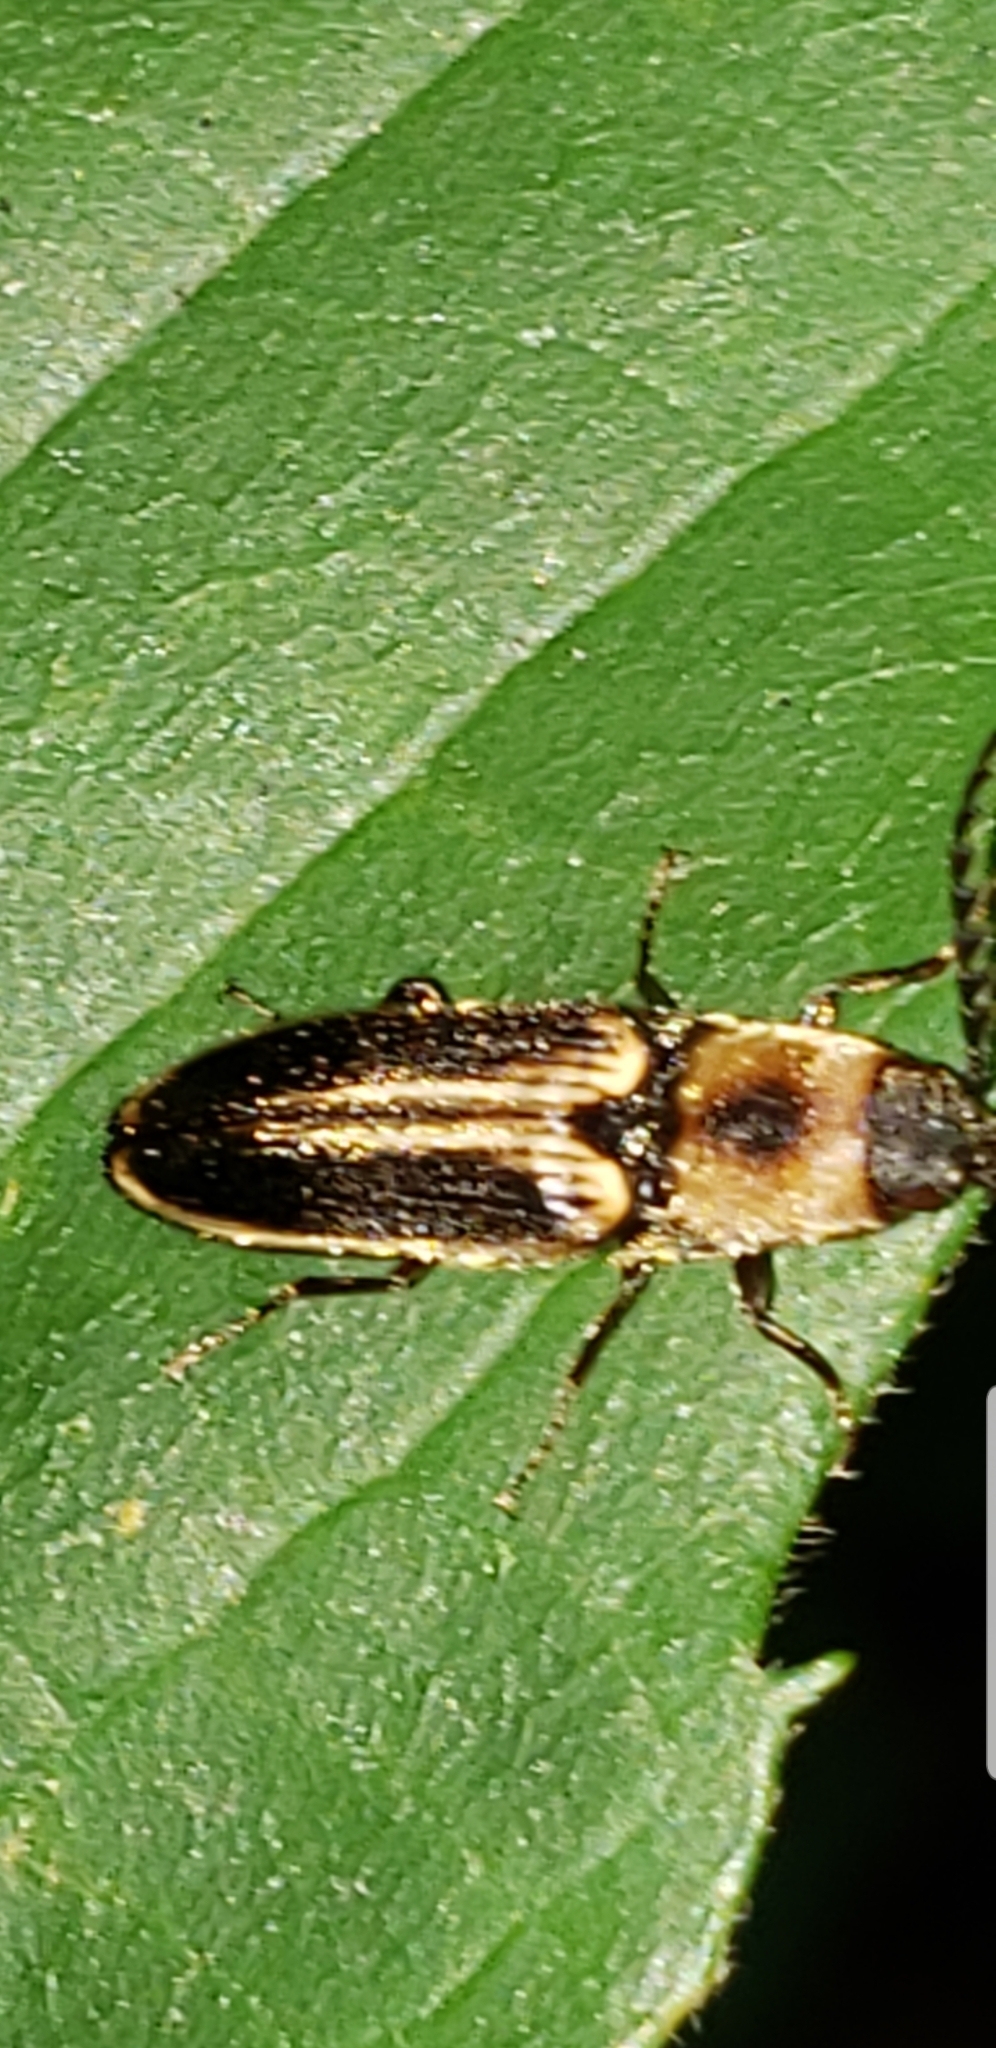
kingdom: Animalia
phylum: Arthropoda
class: Insecta
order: Coleoptera
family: Elateridae
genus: Megapenthes
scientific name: Megapenthes
